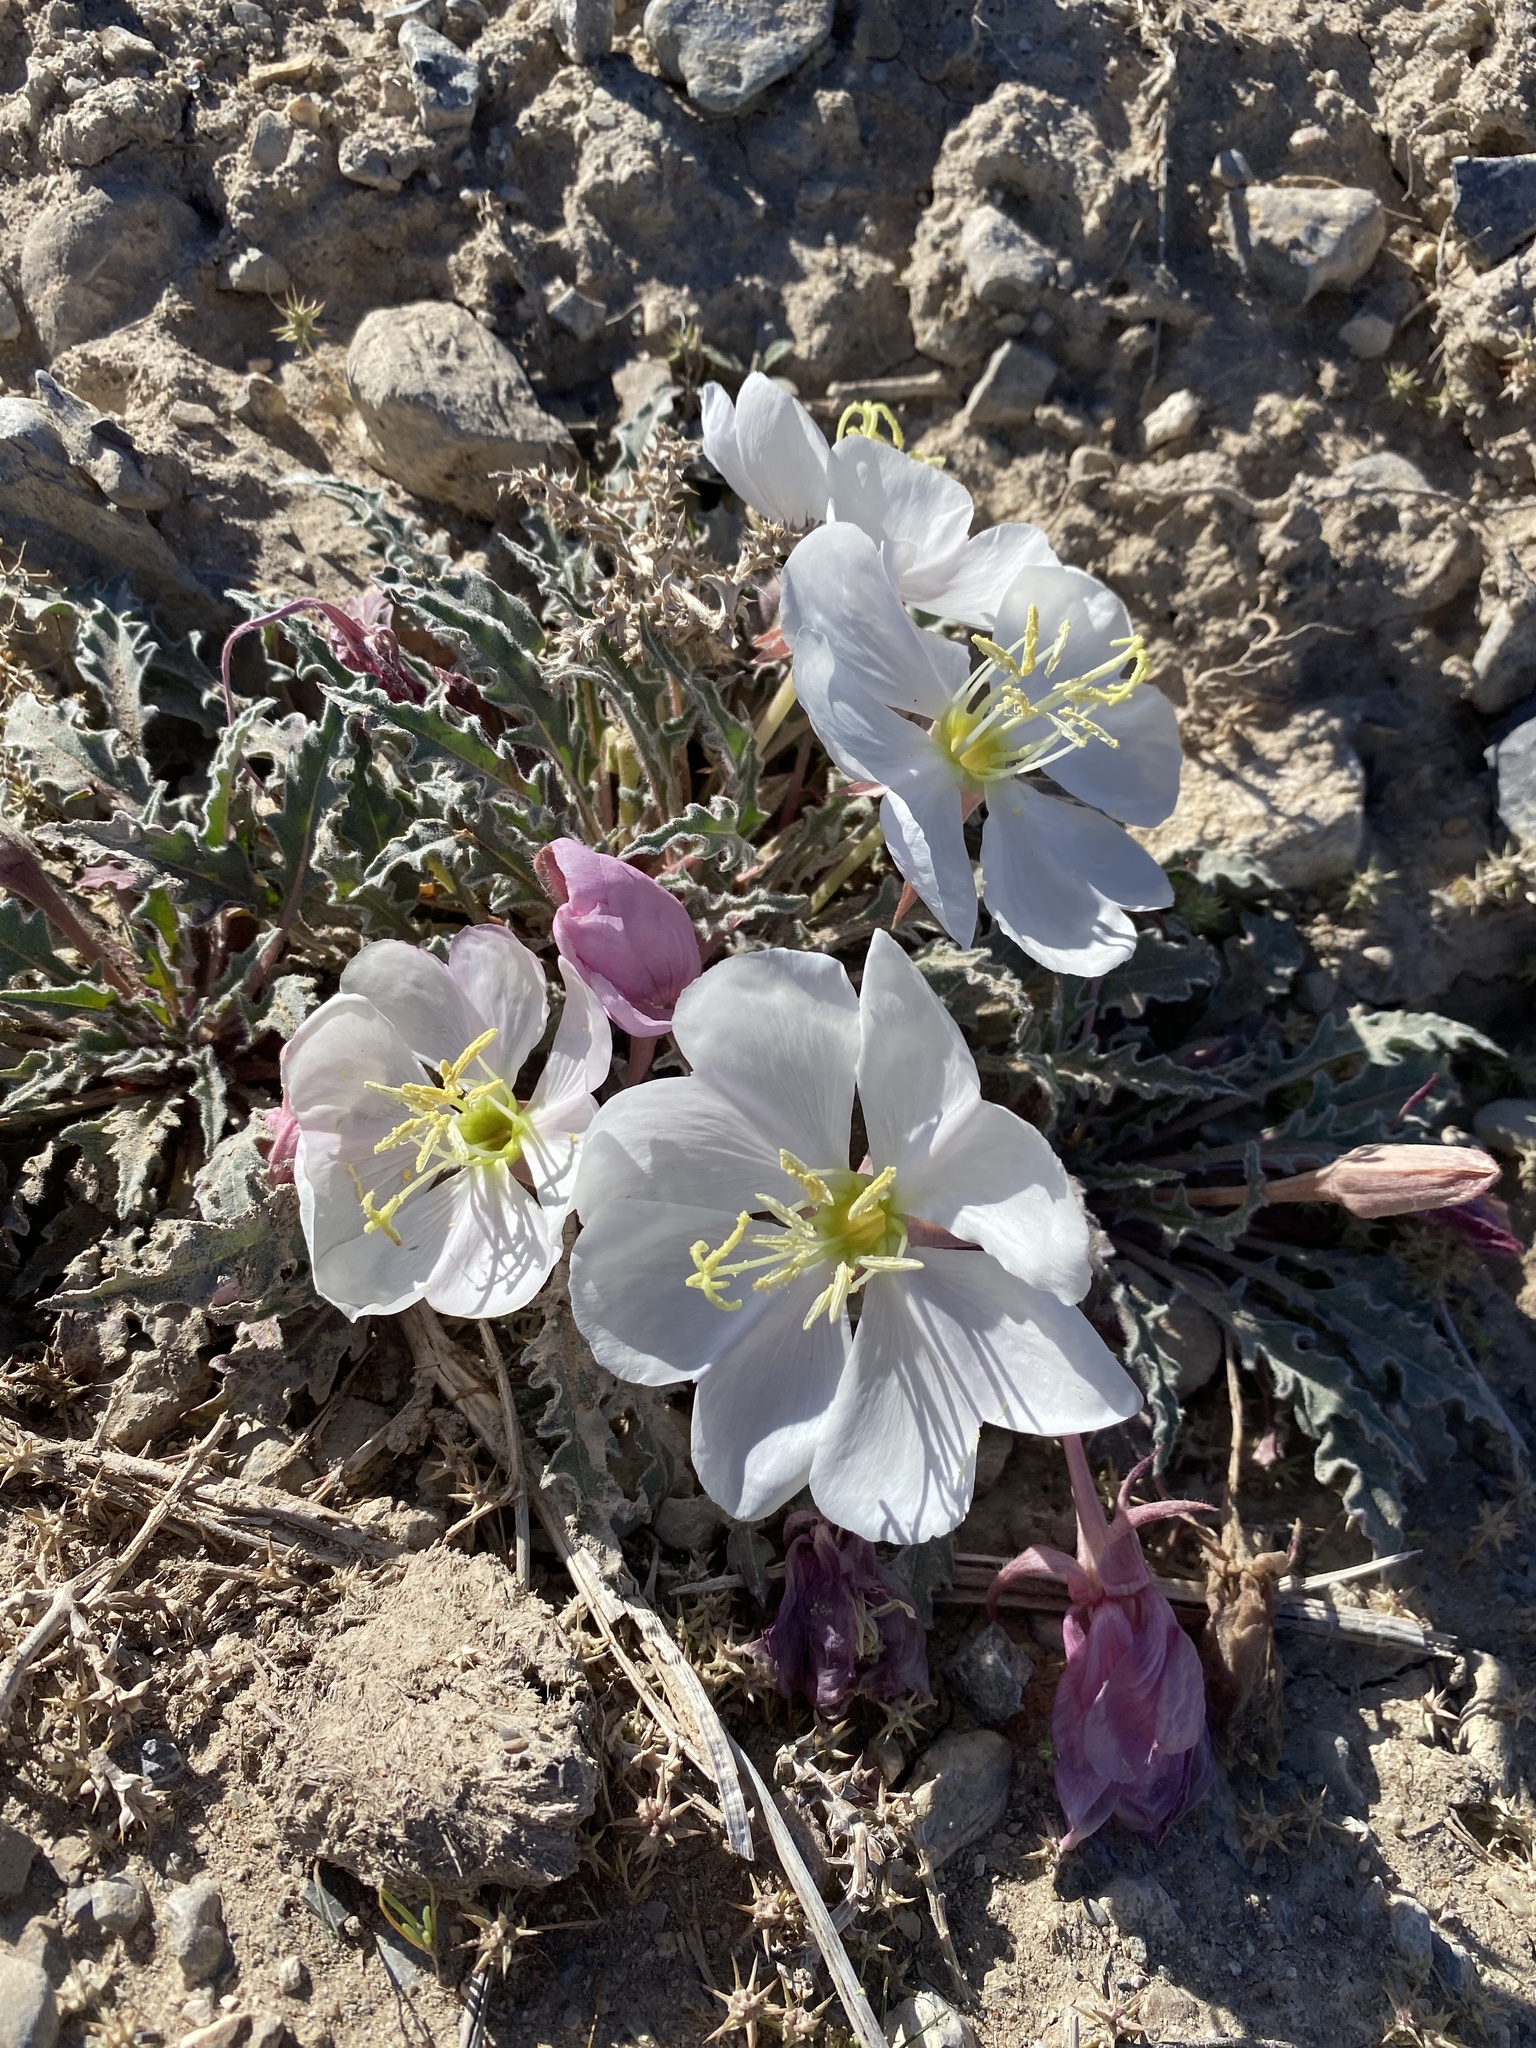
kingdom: Plantae
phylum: Tracheophyta
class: Magnoliopsida
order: Myrtales
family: Onagraceae
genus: Oenothera
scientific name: Oenothera cespitosa
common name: Tufted evening-primrose
